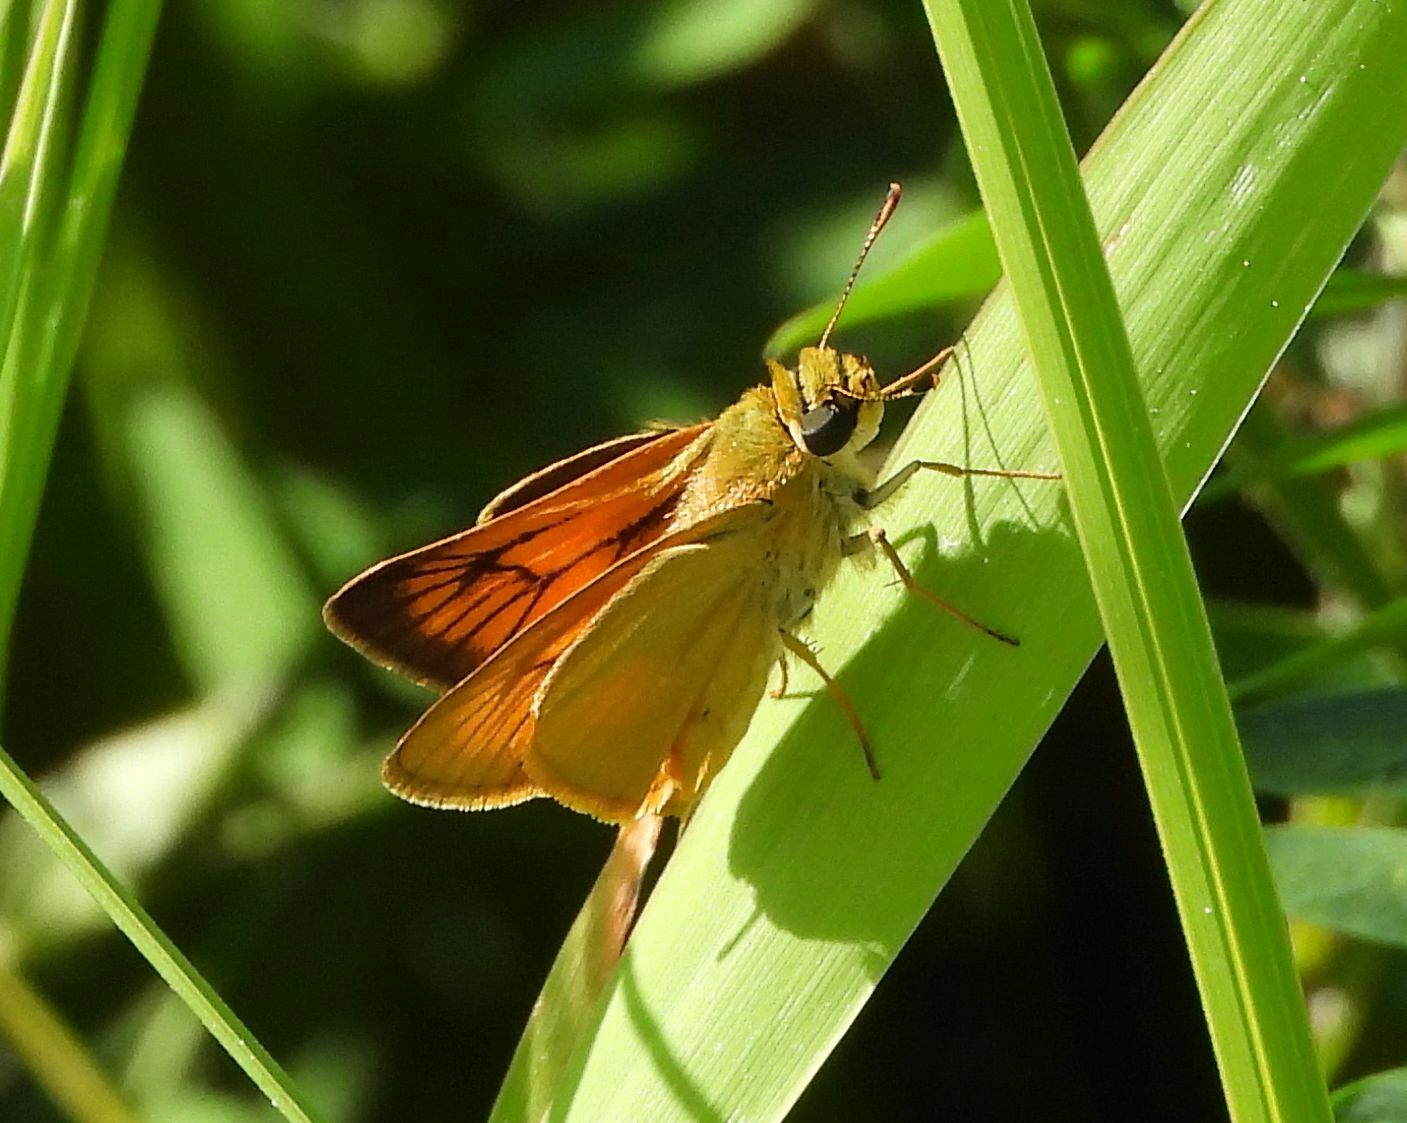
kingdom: Animalia
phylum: Arthropoda
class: Insecta
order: Lepidoptera
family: Hesperiidae
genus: Atrytone
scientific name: Atrytone delaware
